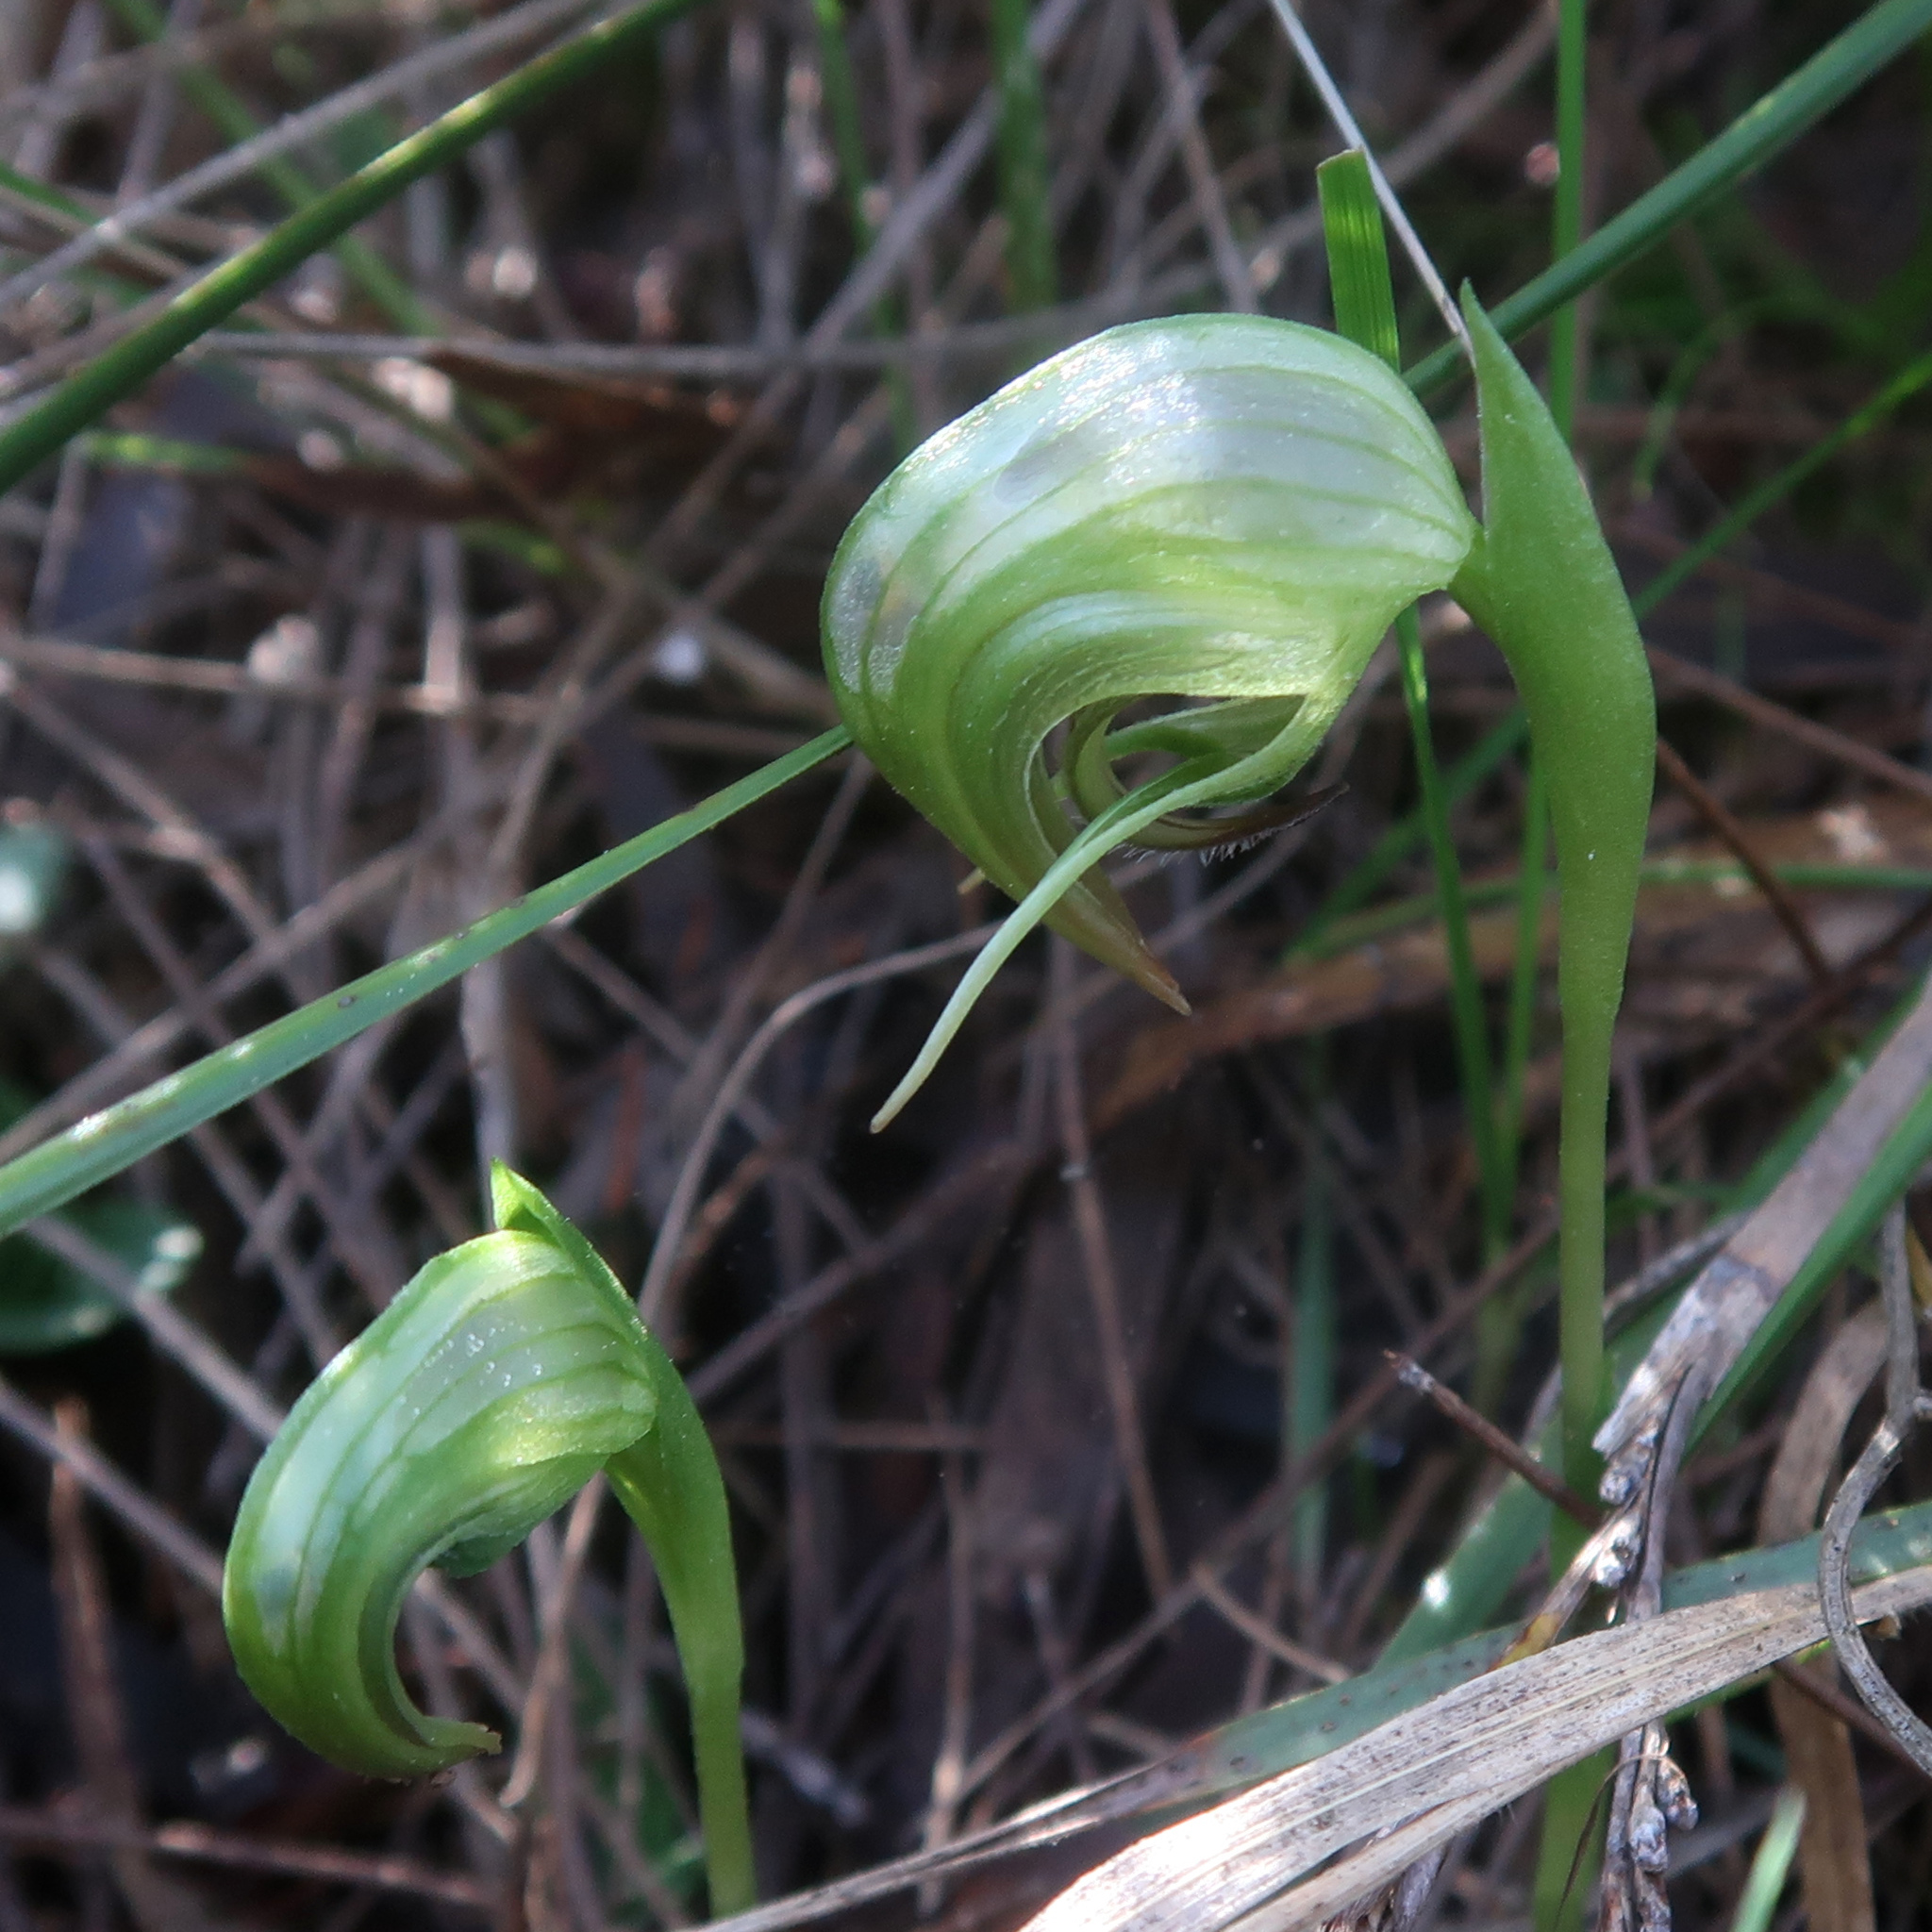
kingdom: Plantae
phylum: Tracheophyta
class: Liliopsida
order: Asparagales
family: Orchidaceae
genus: Pterostylis
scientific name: Pterostylis nutans
